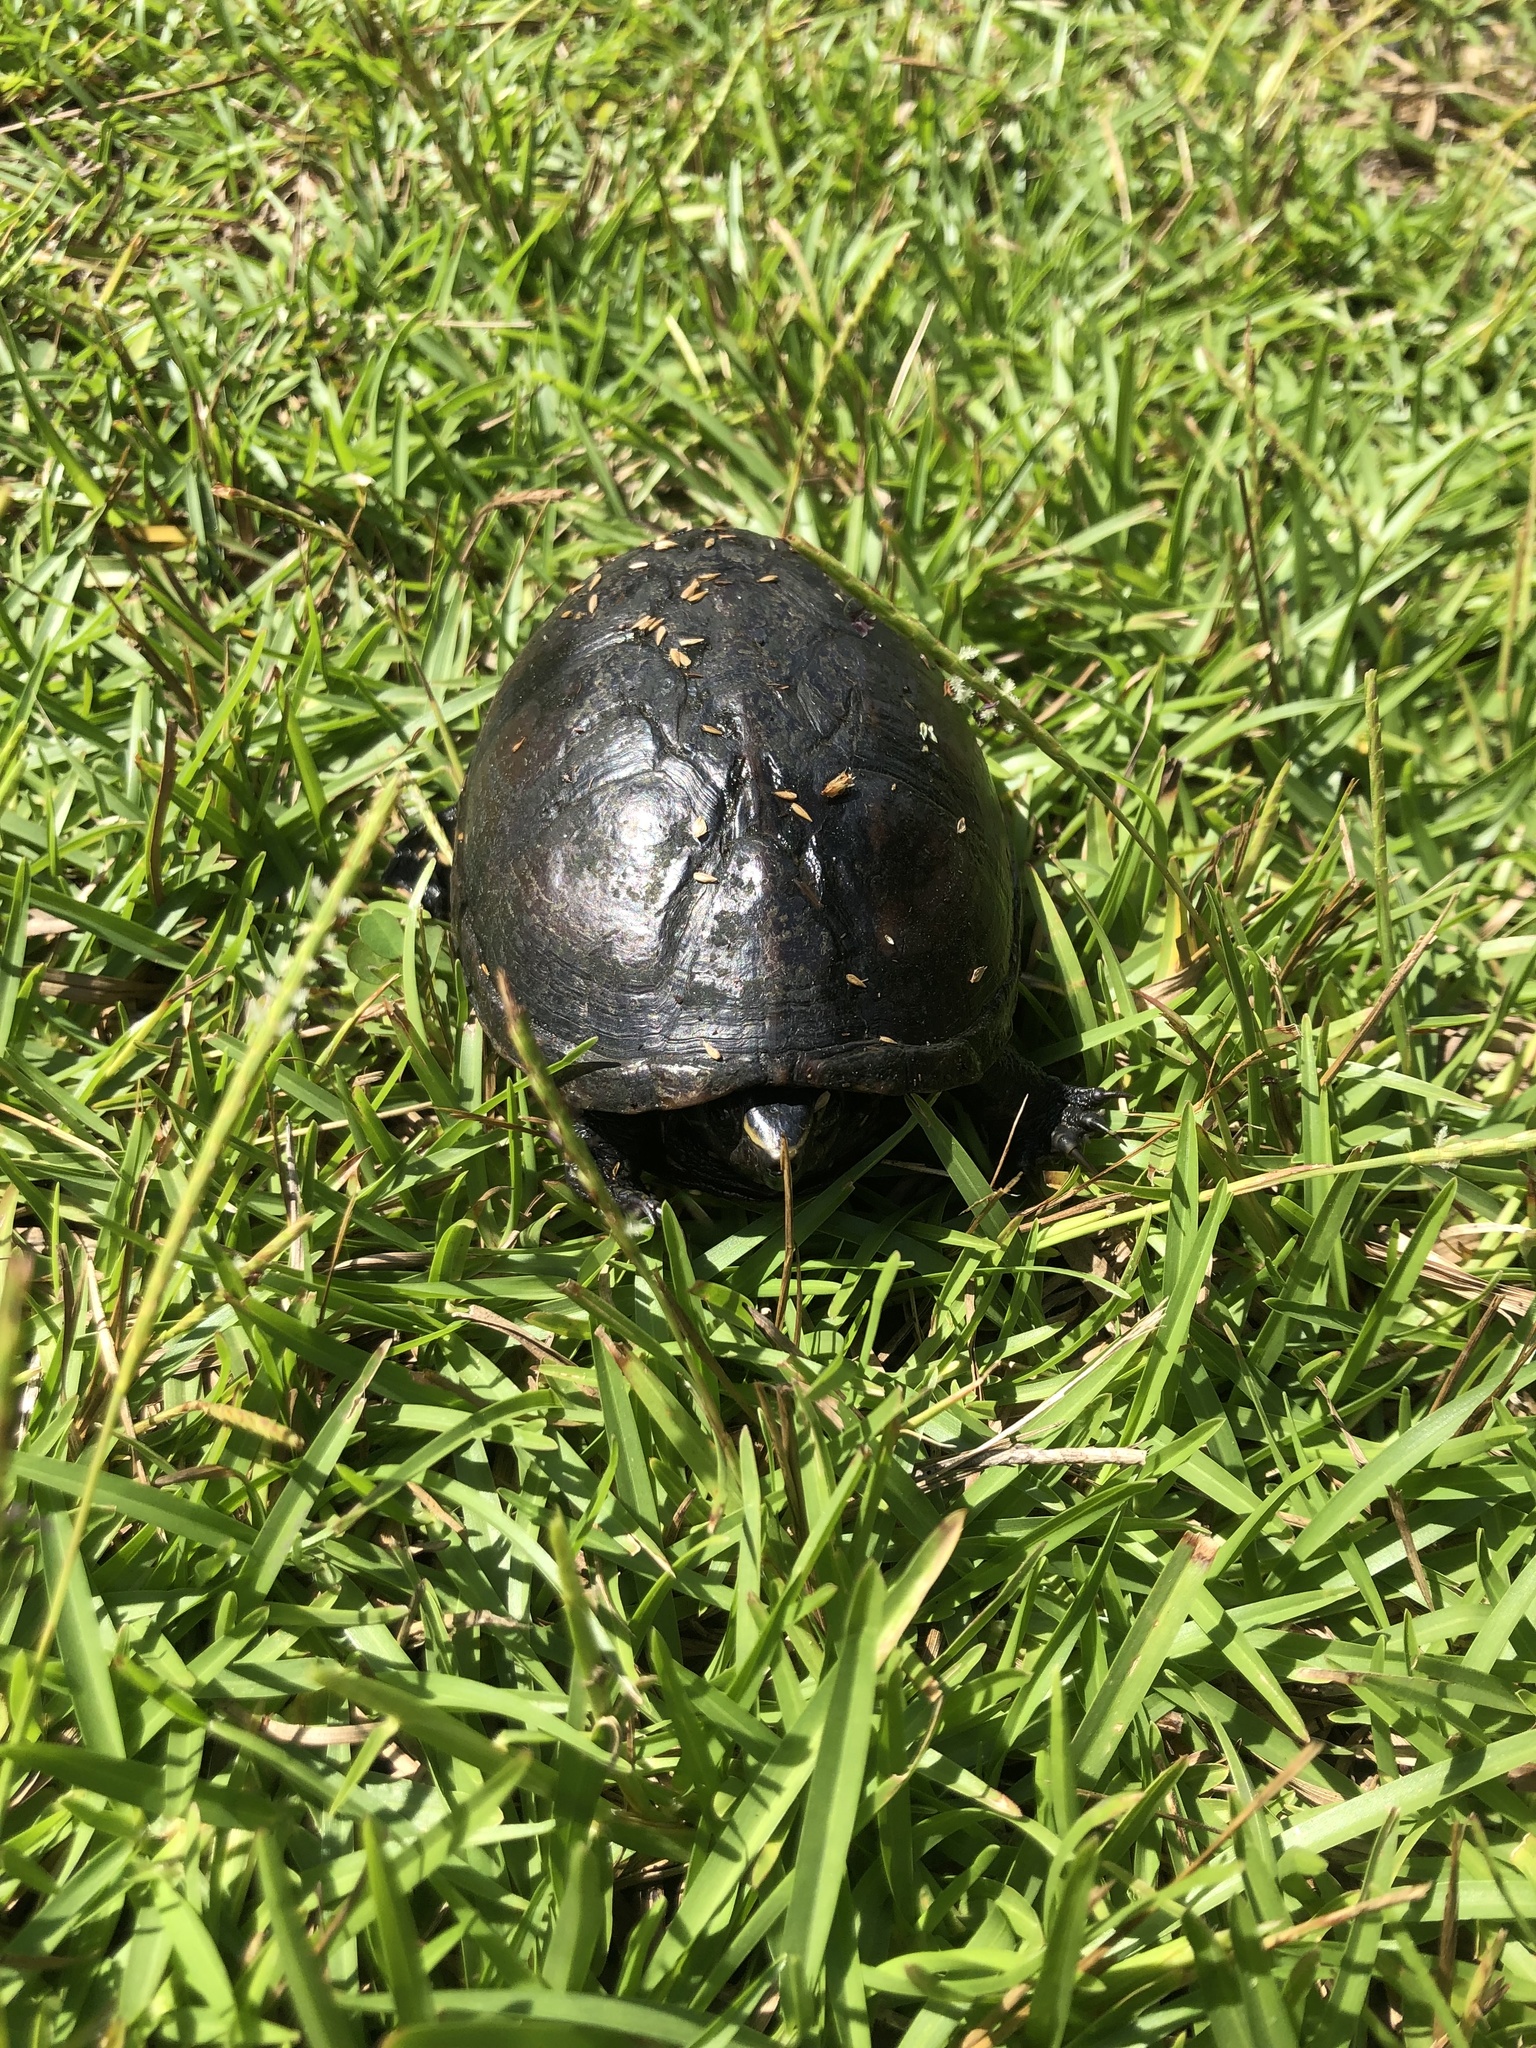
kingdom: Animalia
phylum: Chordata
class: Testudines
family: Kinosternidae
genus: Kinosternon
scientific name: Kinosternon baurii
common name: Striped mud turtle
